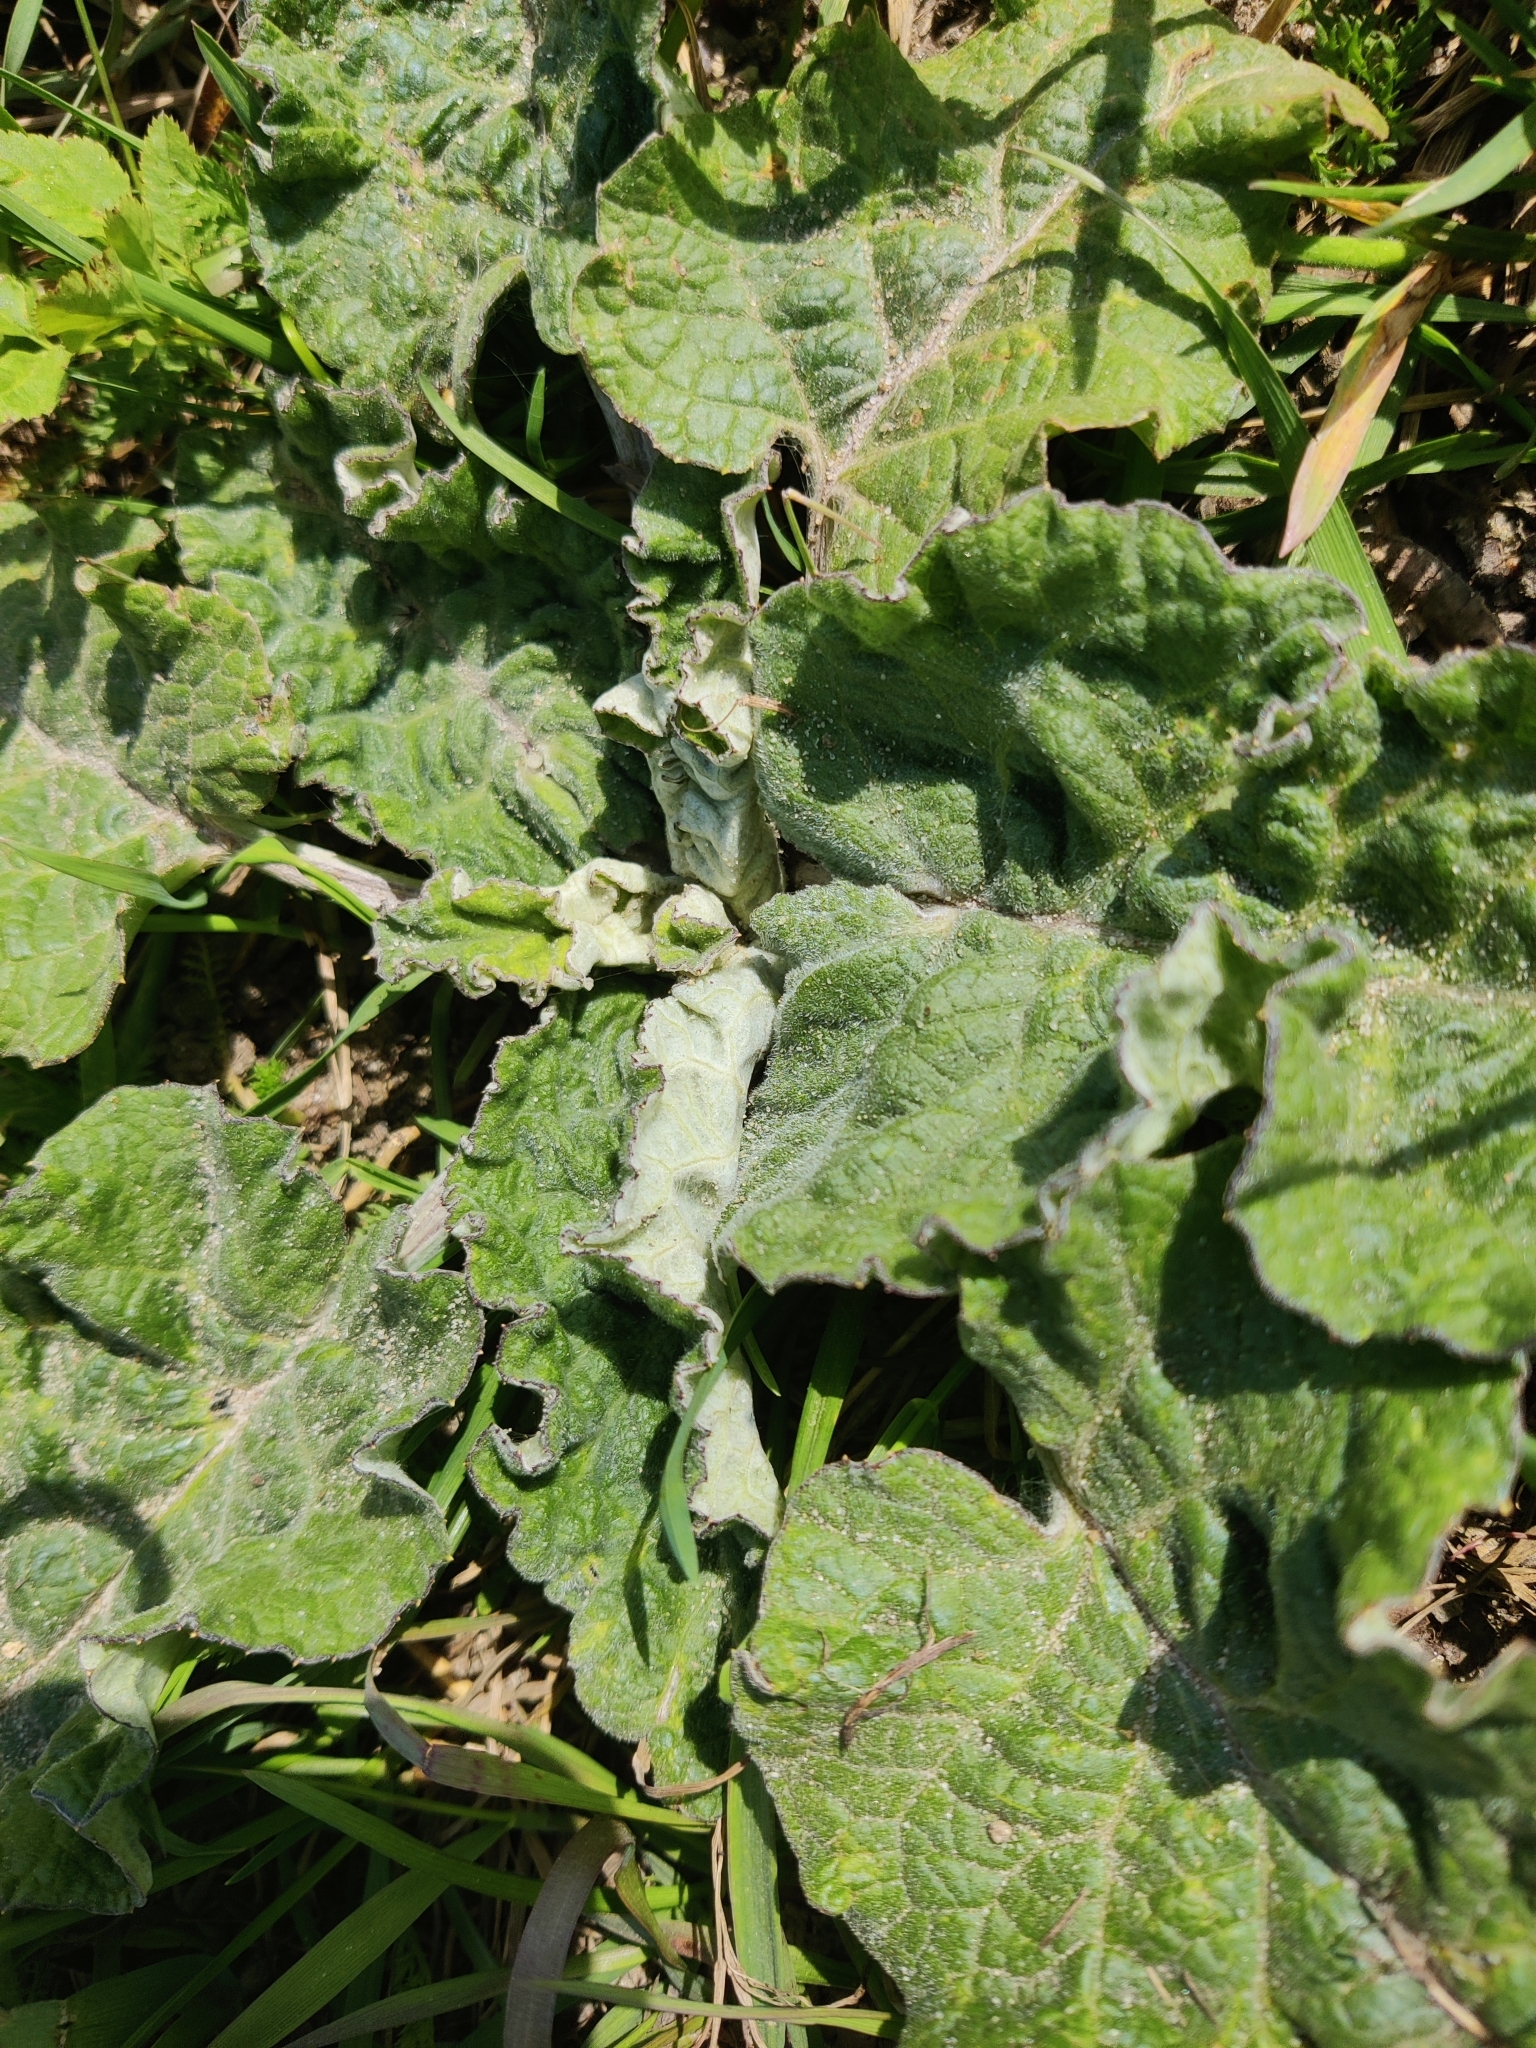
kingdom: Plantae
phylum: Tracheophyta
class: Magnoliopsida
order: Asterales
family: Asteraceae
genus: Arctium
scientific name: Arctium tomentosum
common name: Woolly burdock
